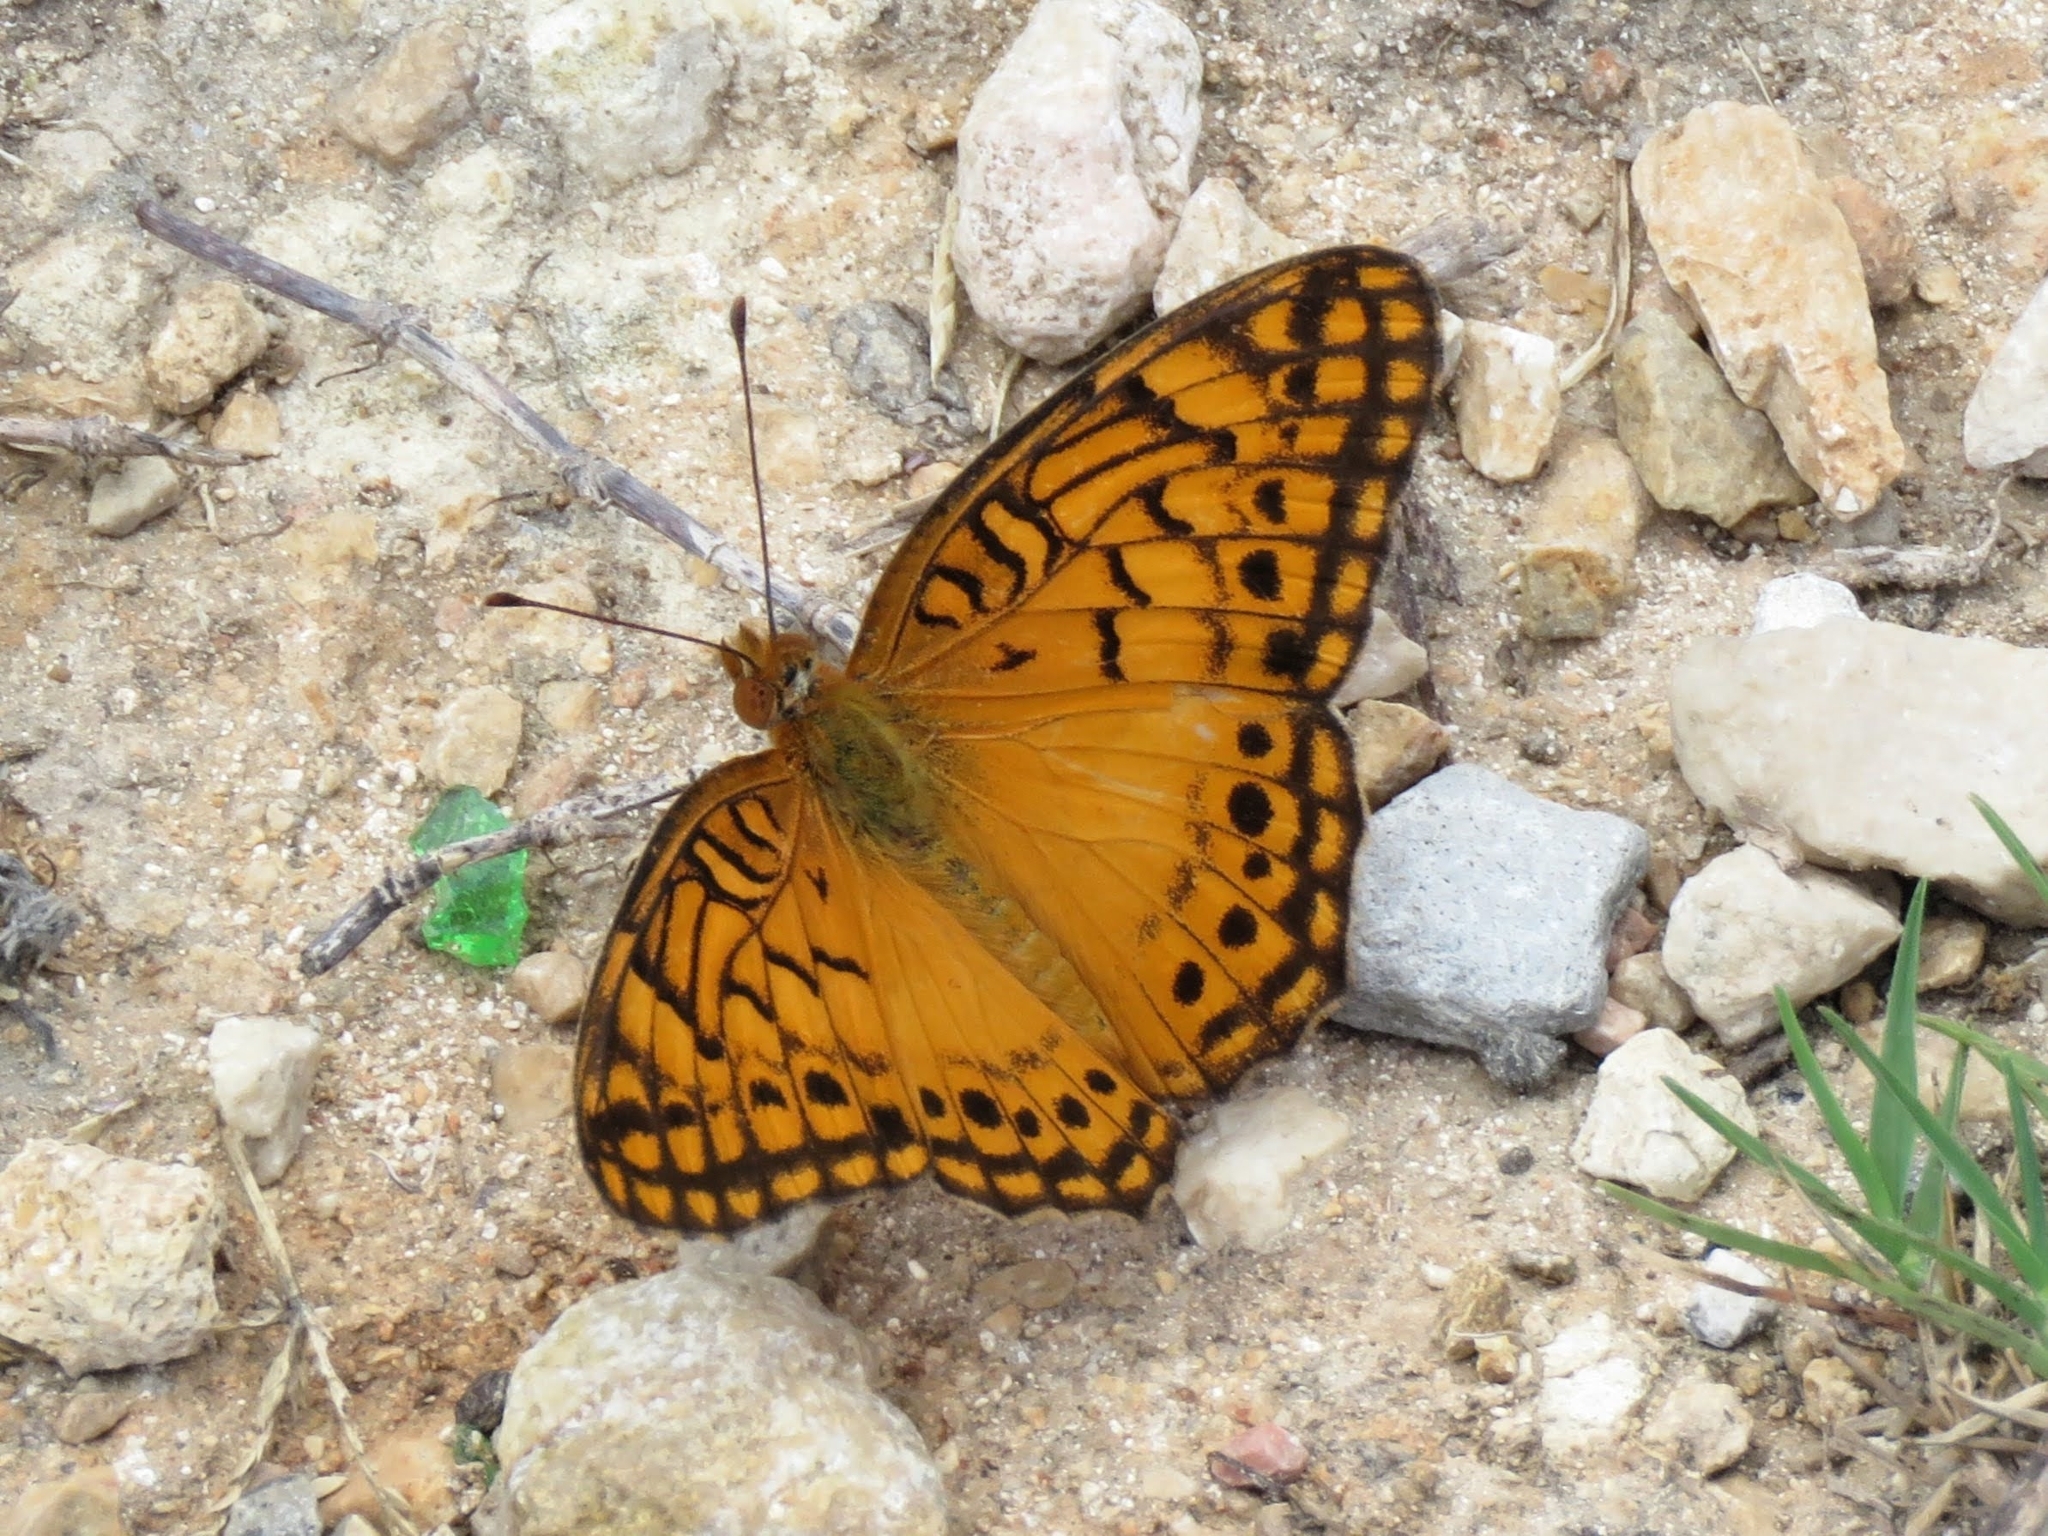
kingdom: Animalia
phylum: Arthropoda
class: Insecta
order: Lepidoptera
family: Nymphalidae
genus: Euptoieta
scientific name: Euptoieta hegesia
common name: Mexican fritillary
